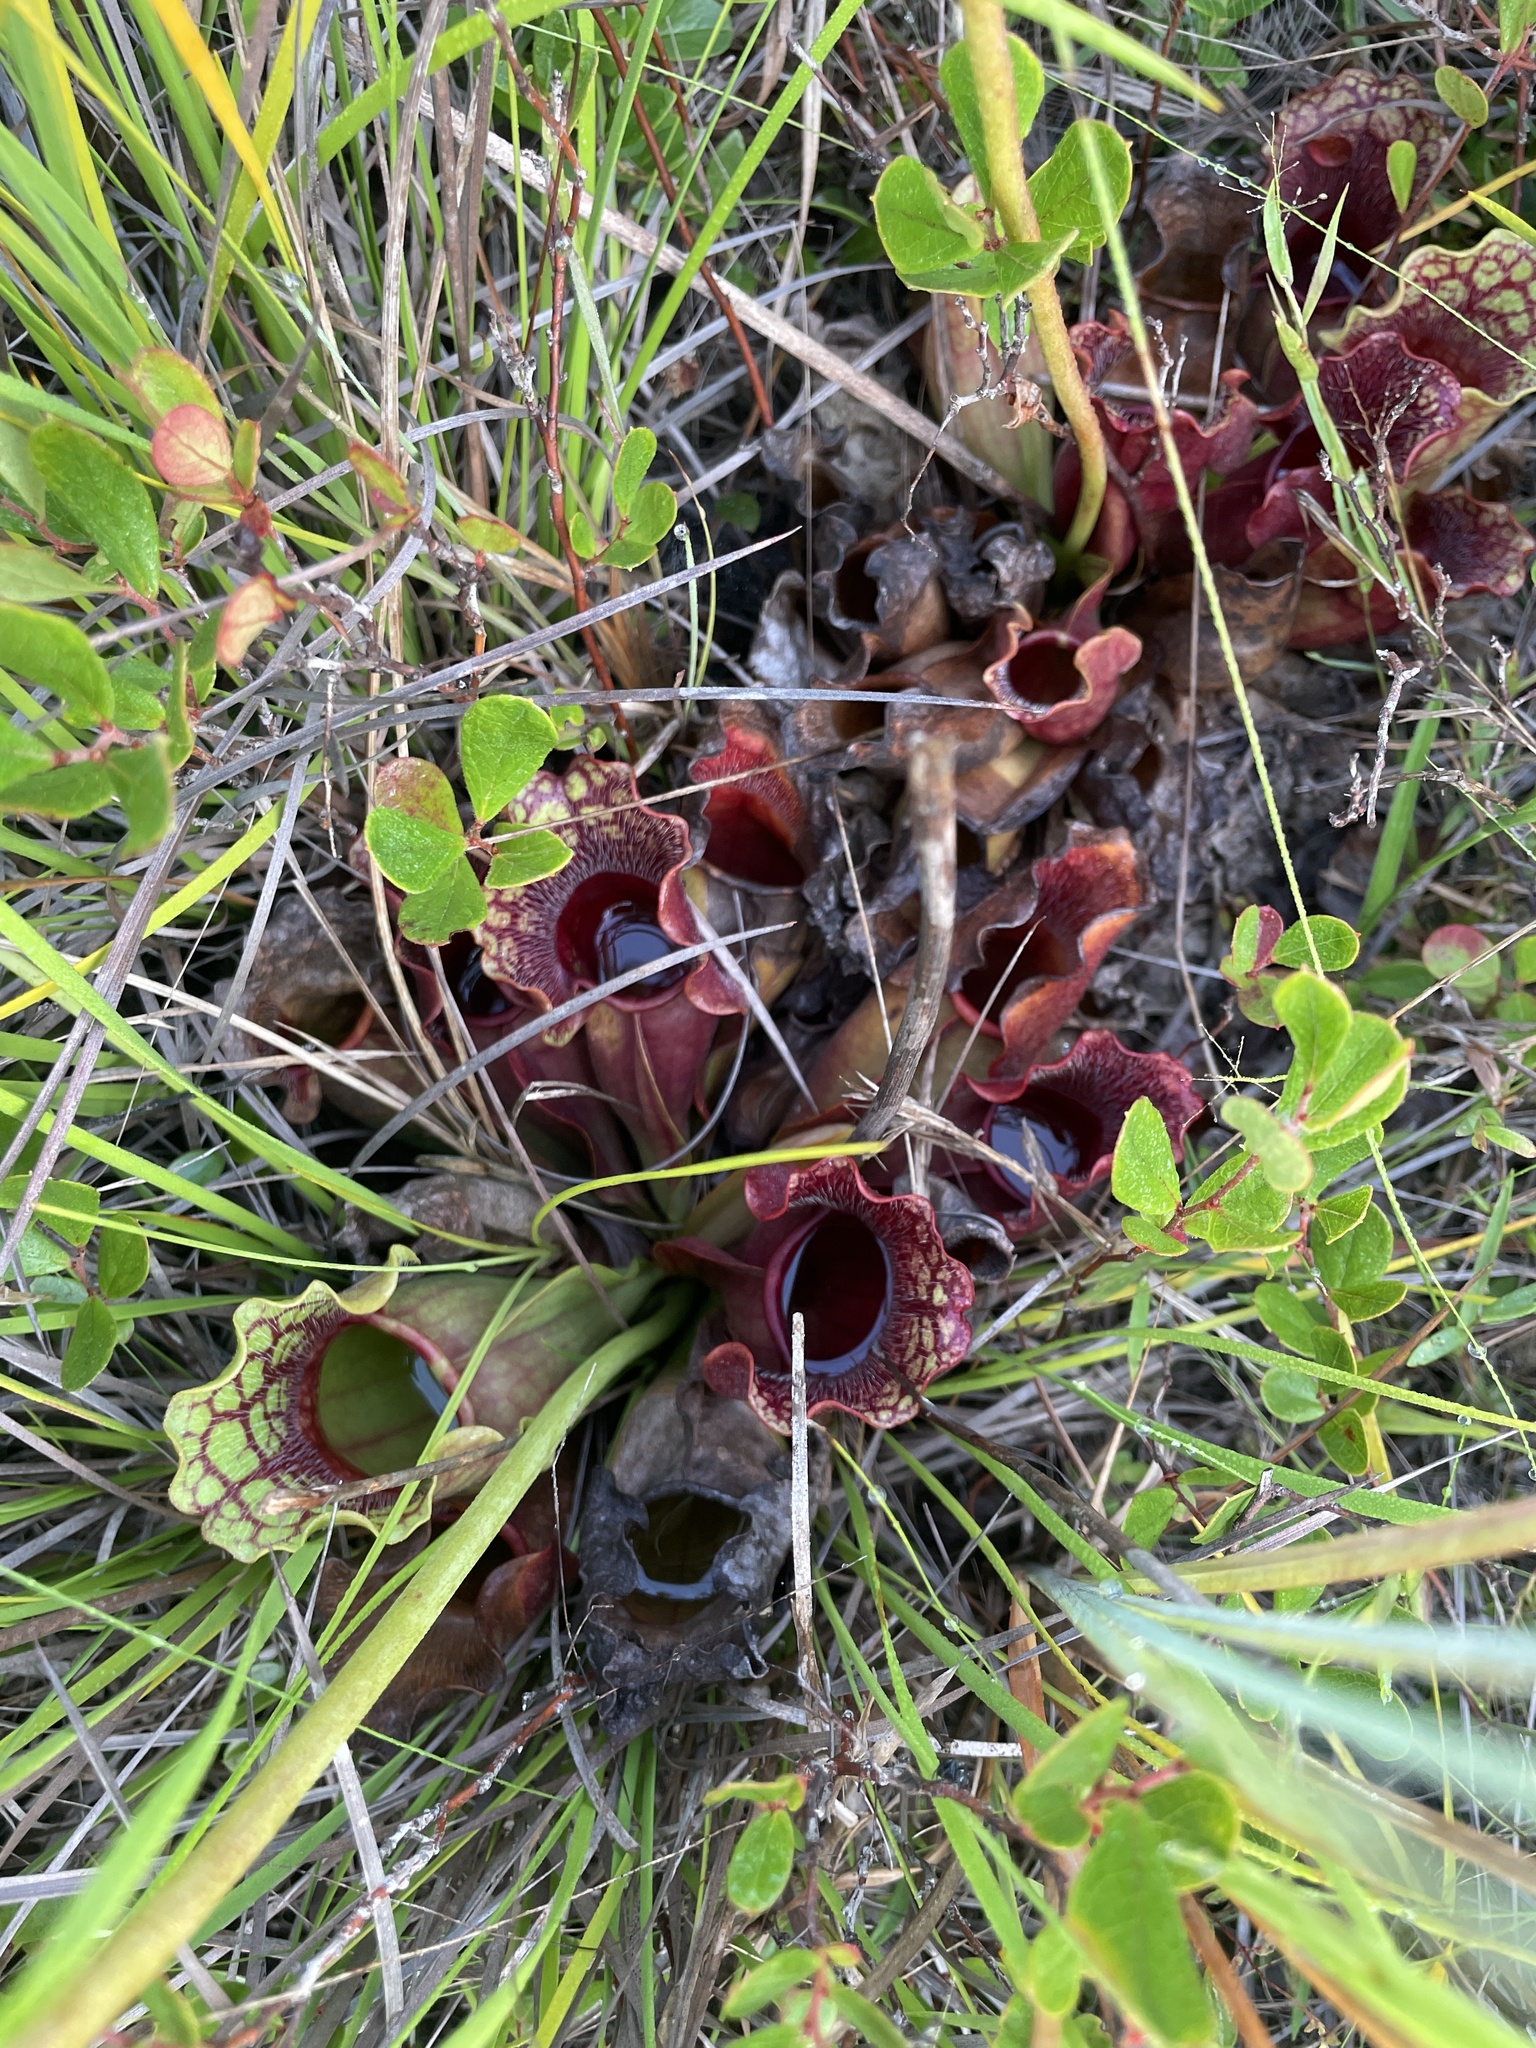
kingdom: Plantae
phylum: Tracheophyta
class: Magnoliopsida
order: Ericales
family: Sarraceniaceae
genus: Sarracenia
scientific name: Sarracenia purpurea
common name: Pitcherplant
